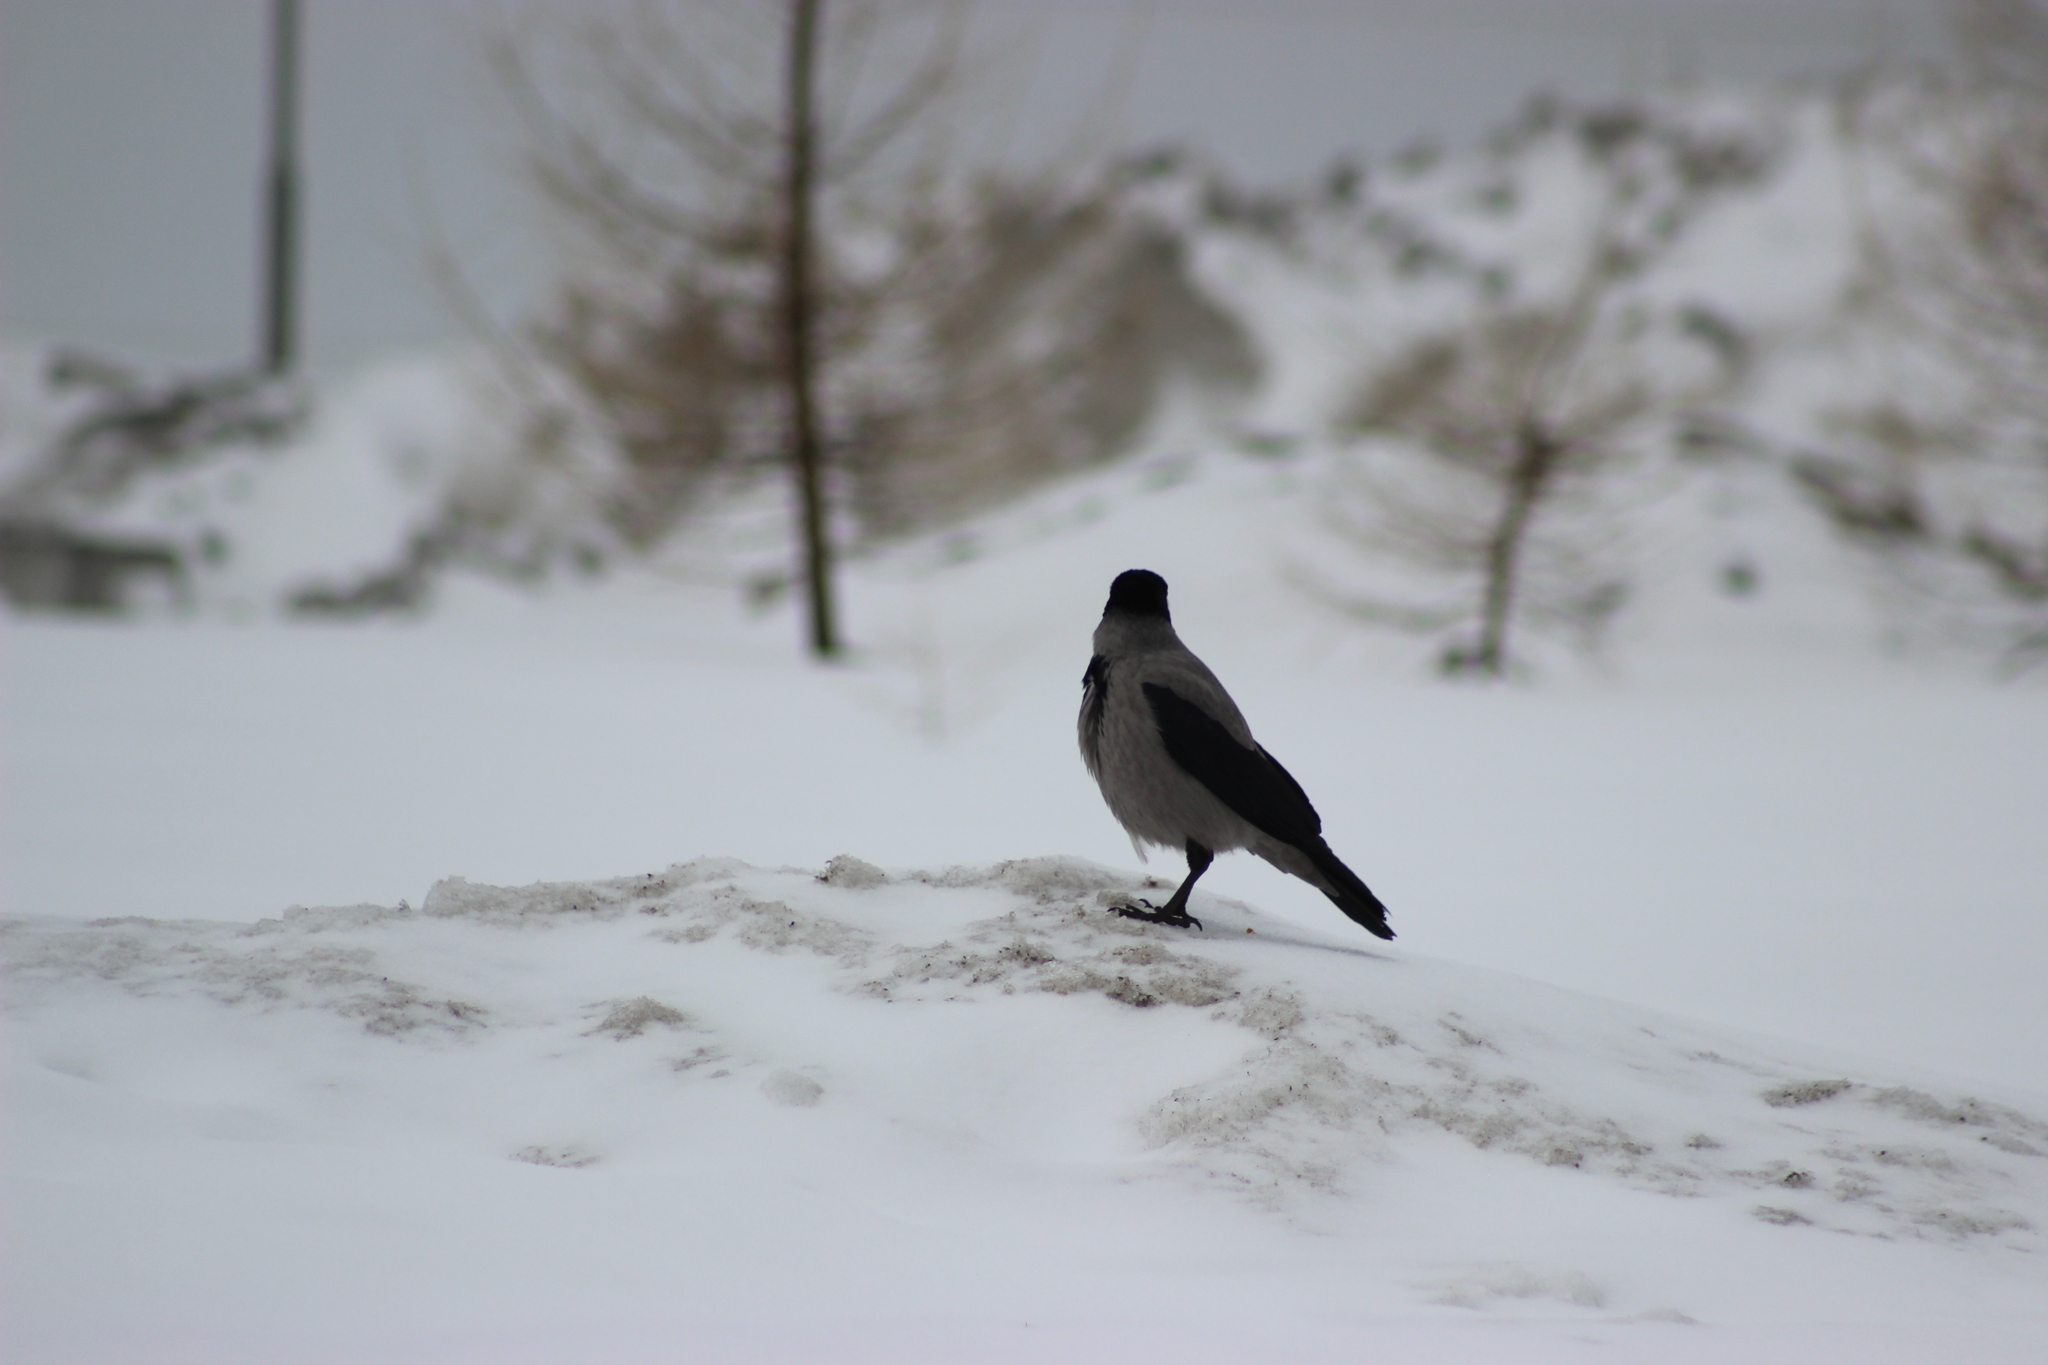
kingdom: Animalia
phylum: Chordata
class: Aves
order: Passeriformes
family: Corvidae
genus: Corvus
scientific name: Corvus cornix
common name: Hooded crow
